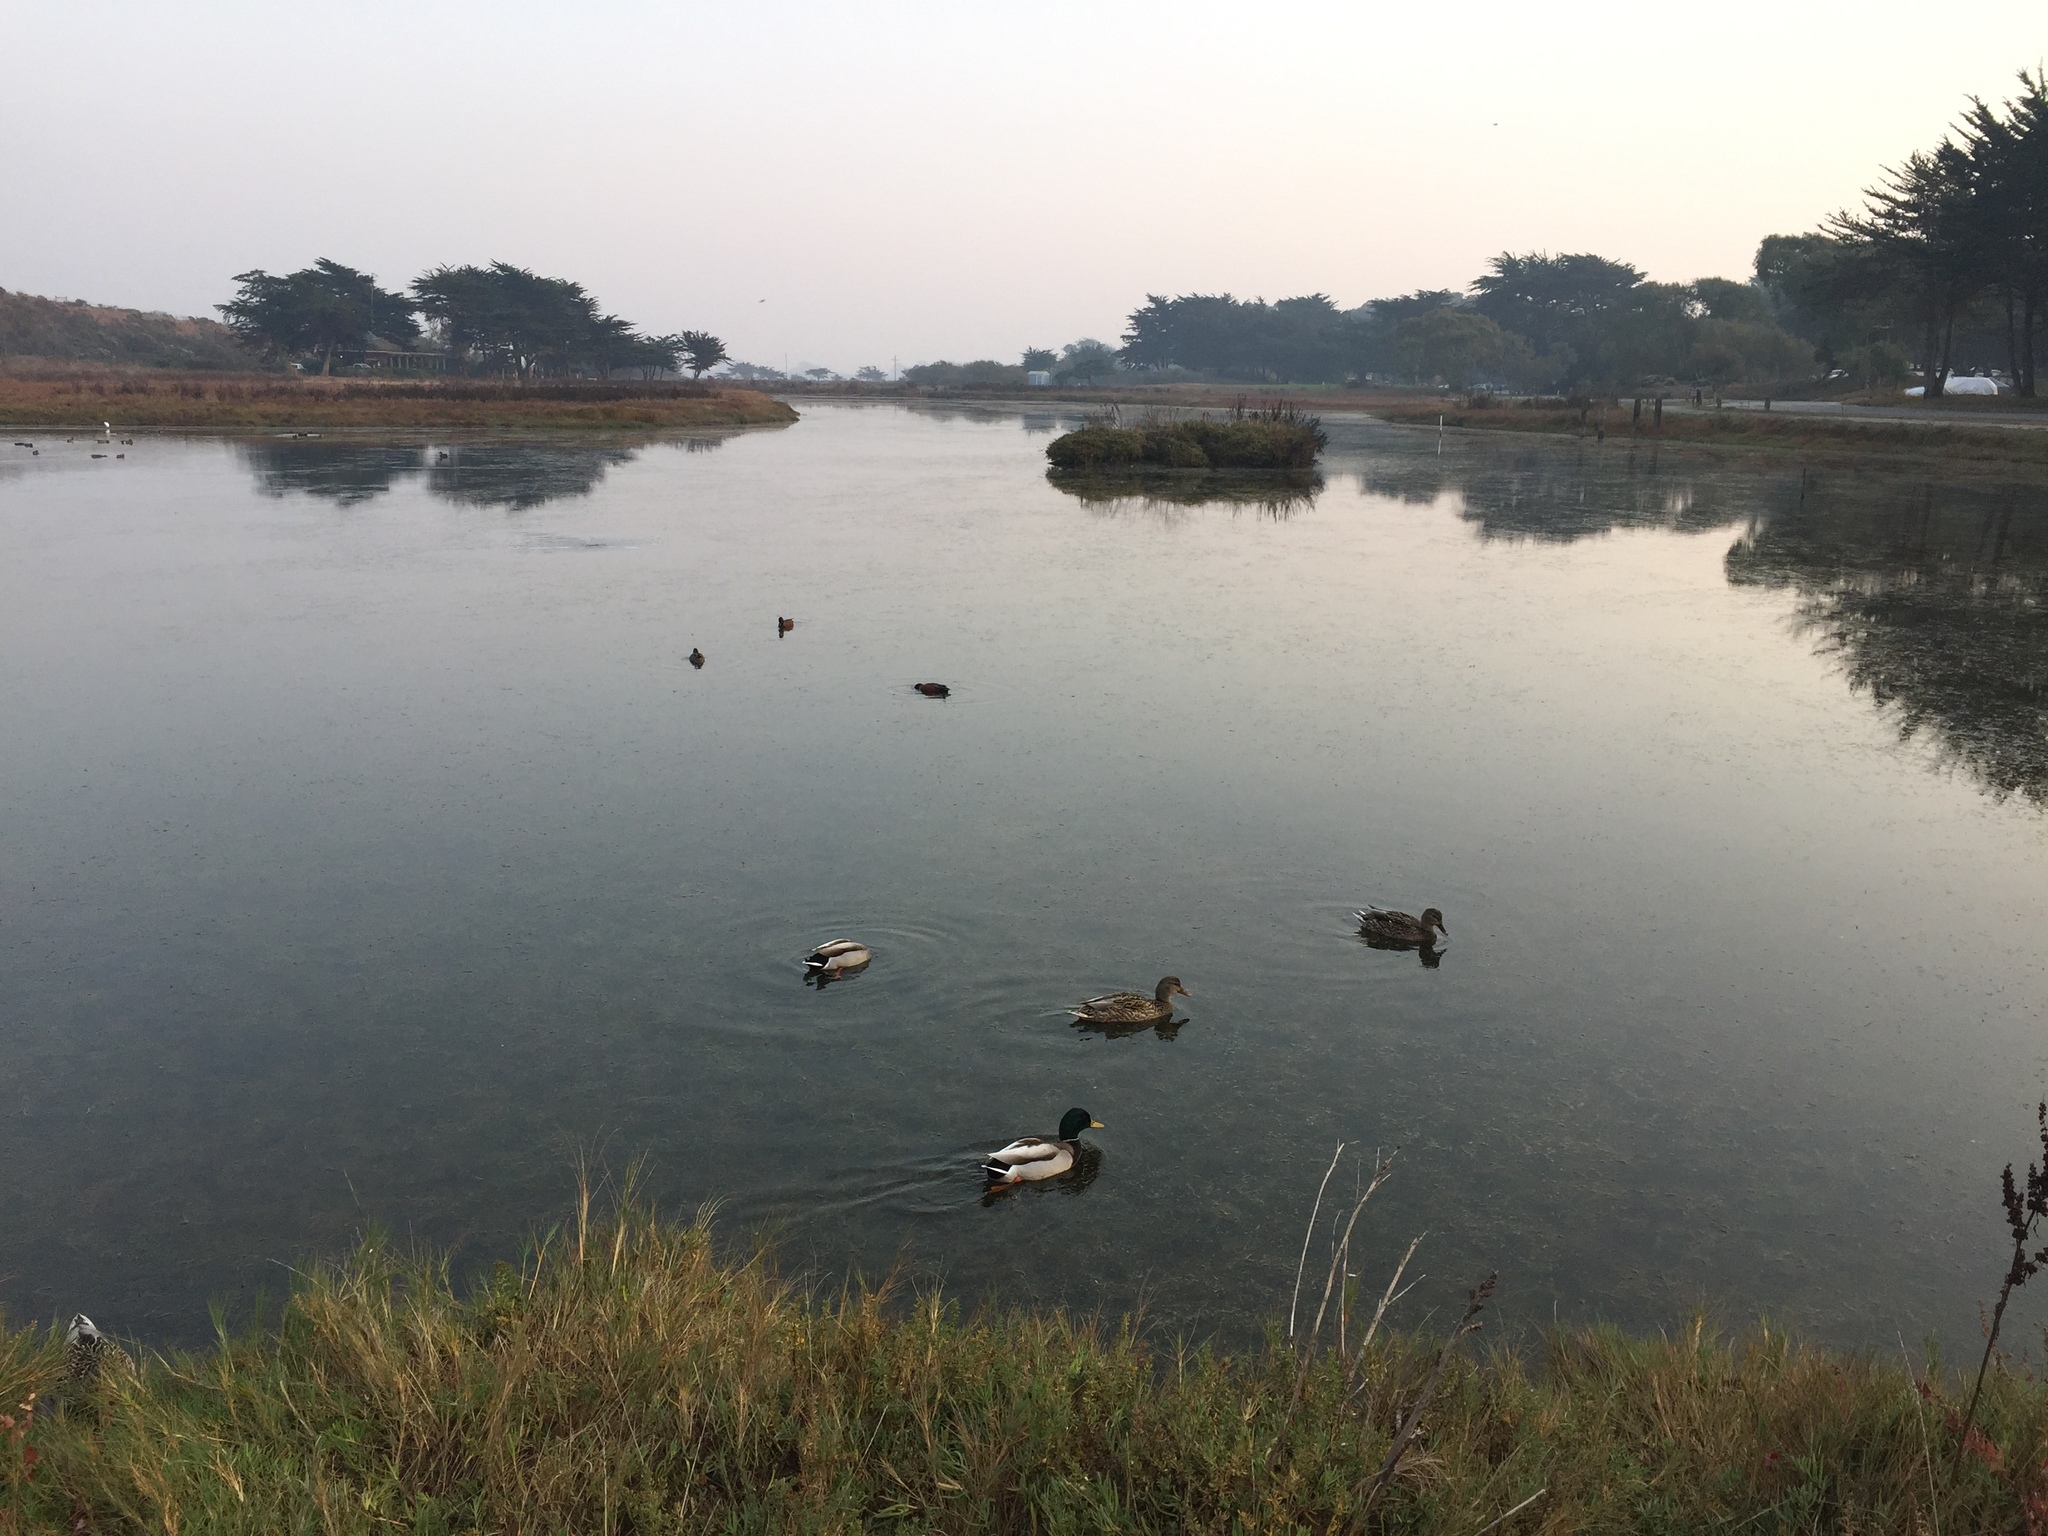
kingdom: Animalia
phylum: Chordata
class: Aves
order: Anseriformes
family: Anatidae
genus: Anas
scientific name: Anas platyrhynchos
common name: Mallard
